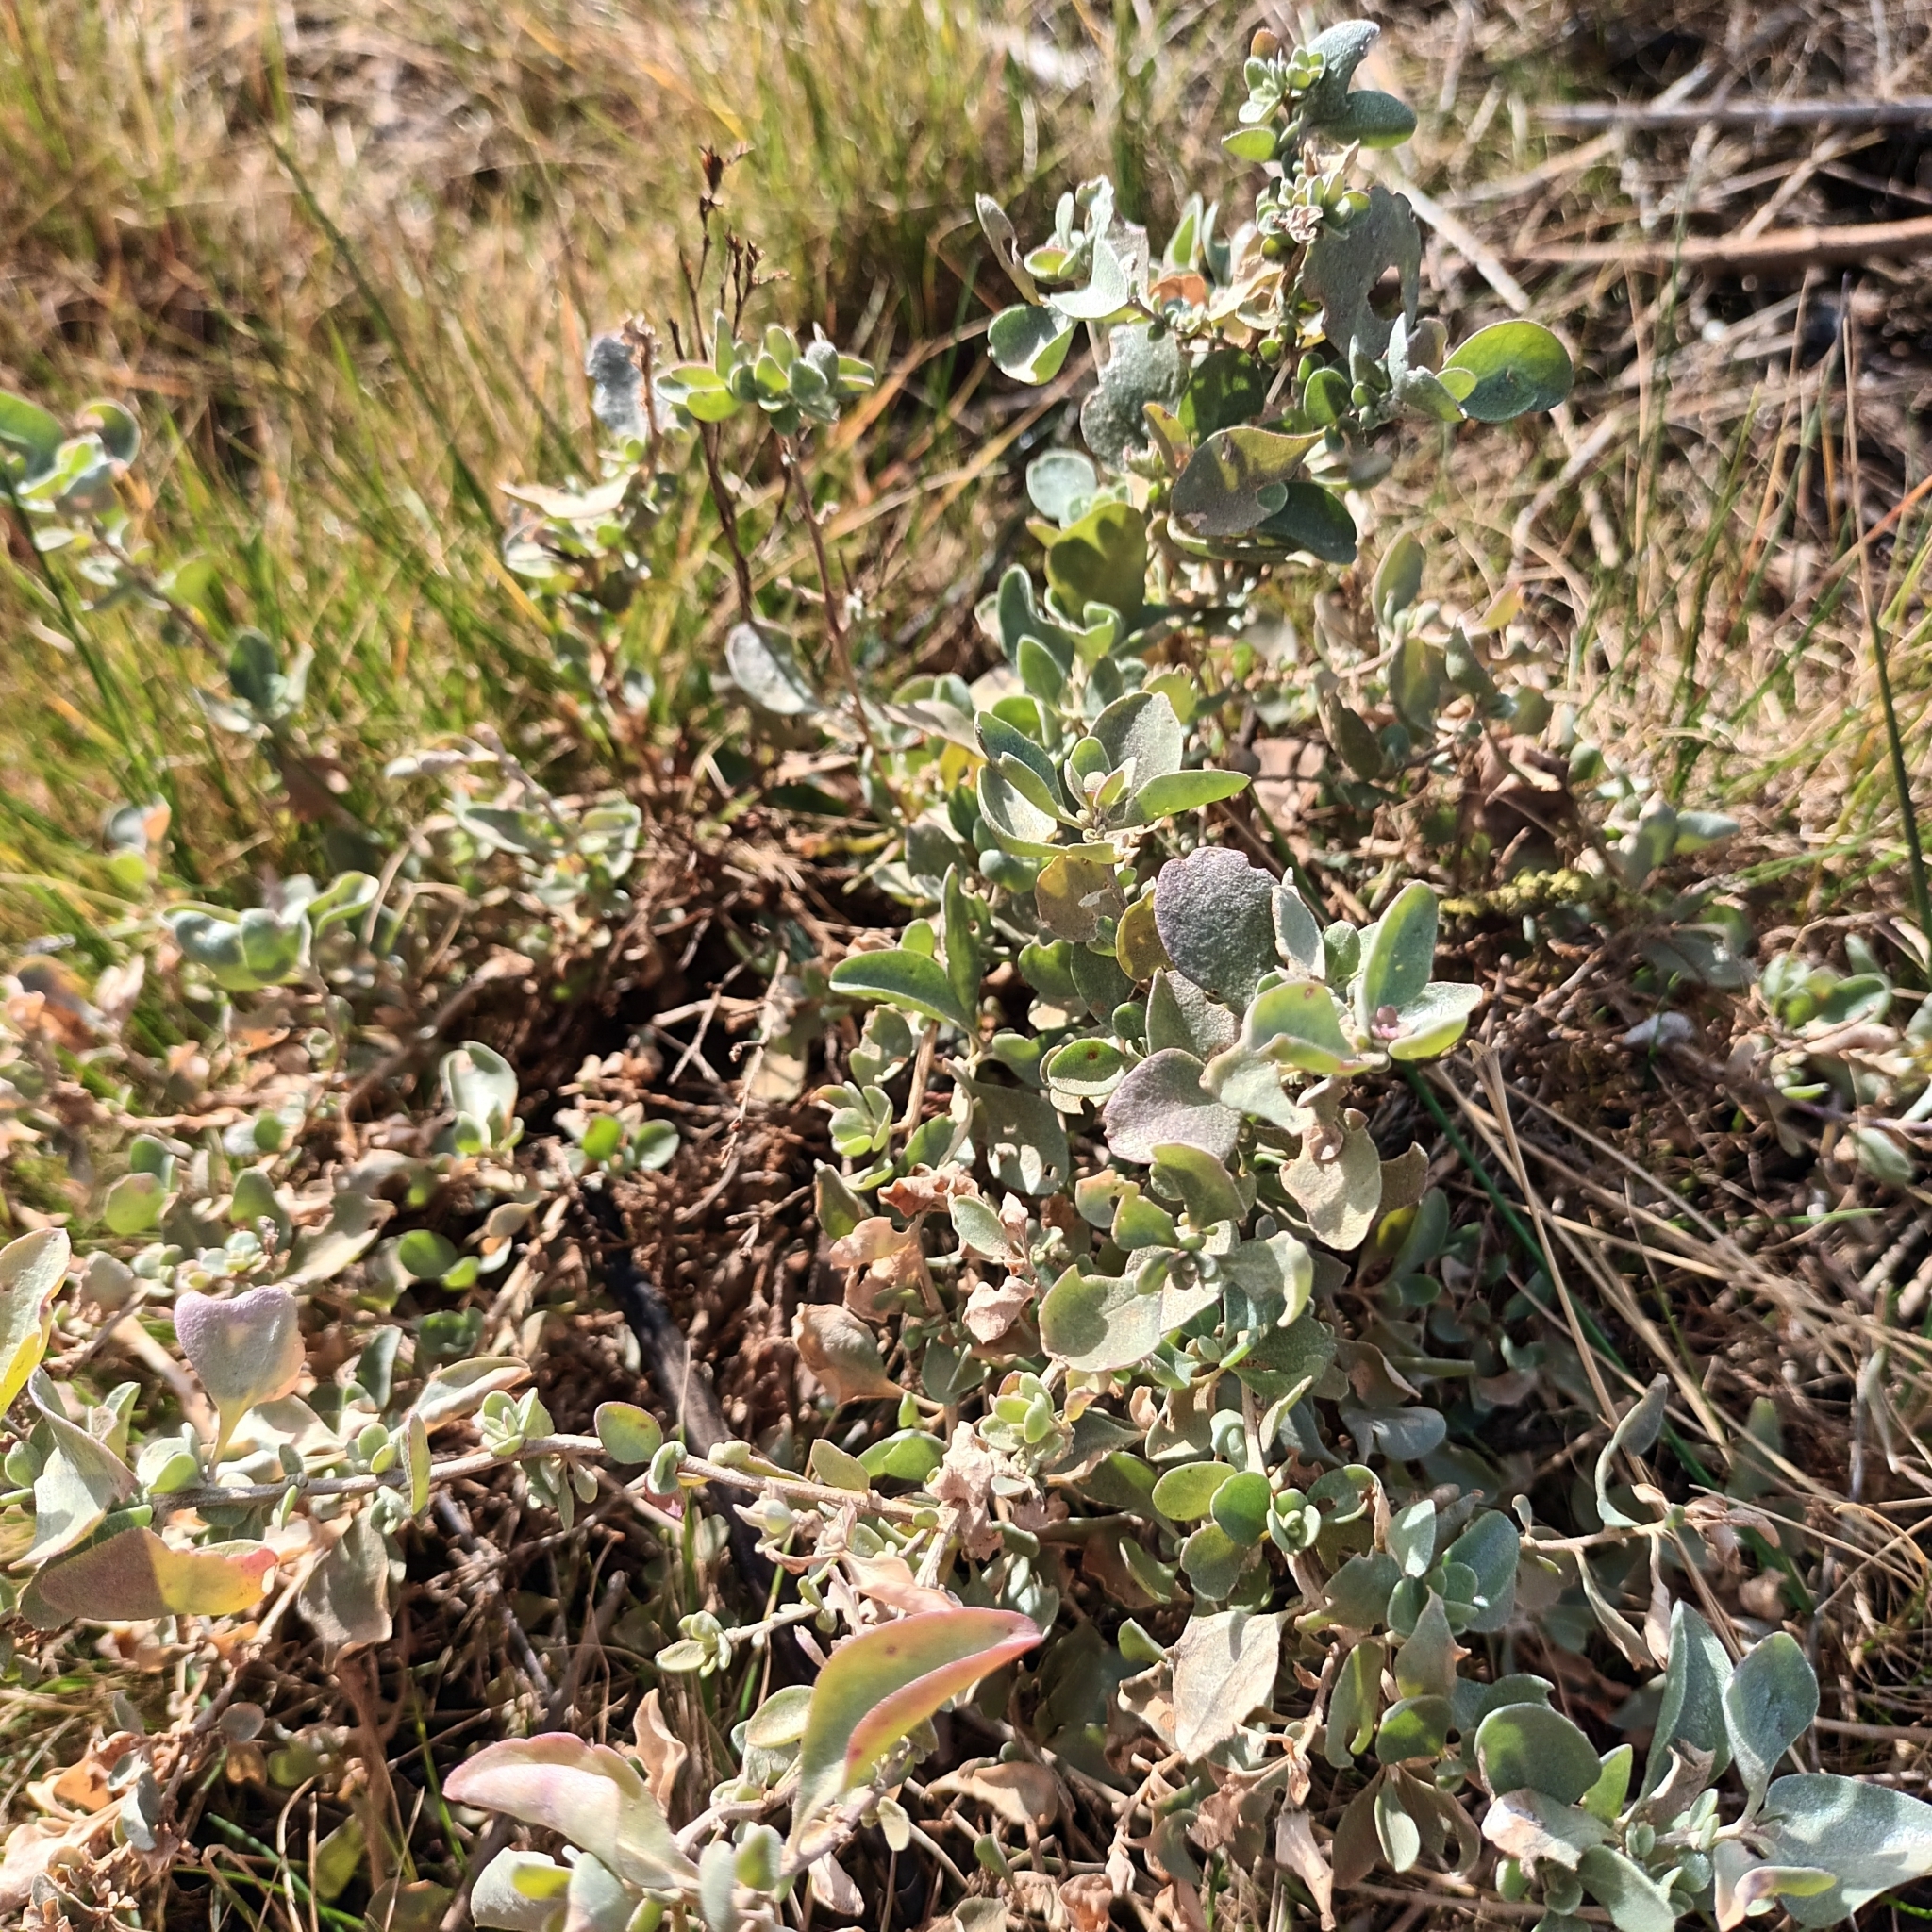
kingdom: Plantae
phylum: Tracheophyta
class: Magnoliopsida
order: Caryophyllales
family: Amaranthaceae
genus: Atriplex
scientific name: Atriplex halimus
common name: Shrubby orache
